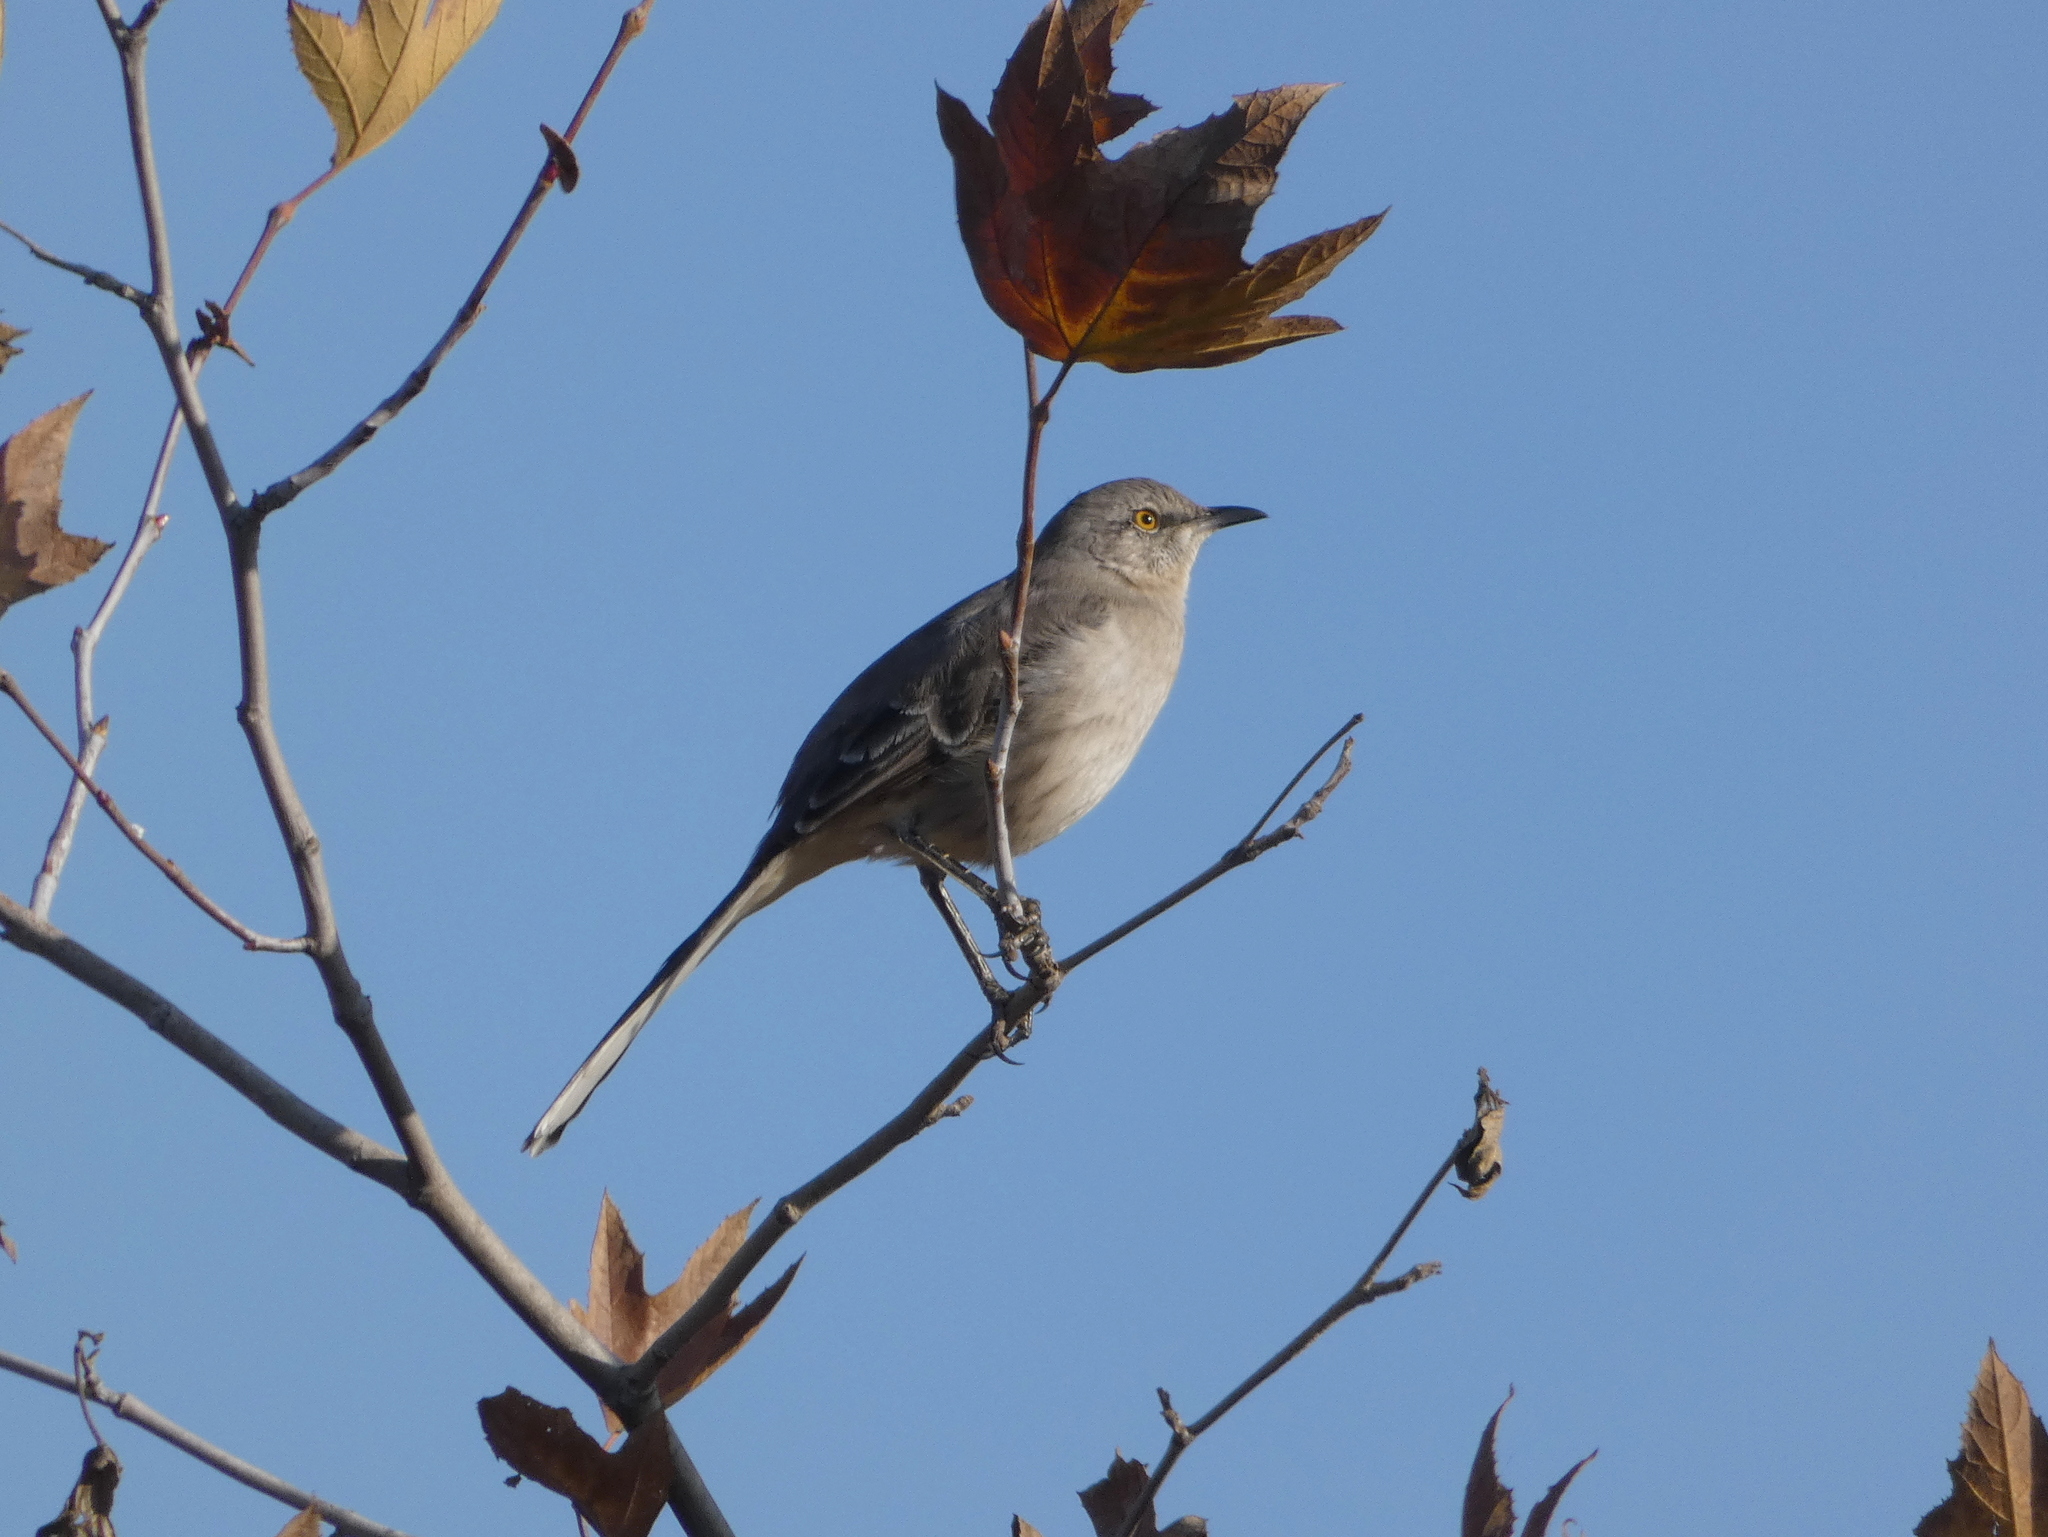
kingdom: Animalia
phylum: Chordata
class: Aves
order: Passeriformes
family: Mimidae
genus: Mimus
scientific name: Mimus polyglottos
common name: Northern mockingbird
